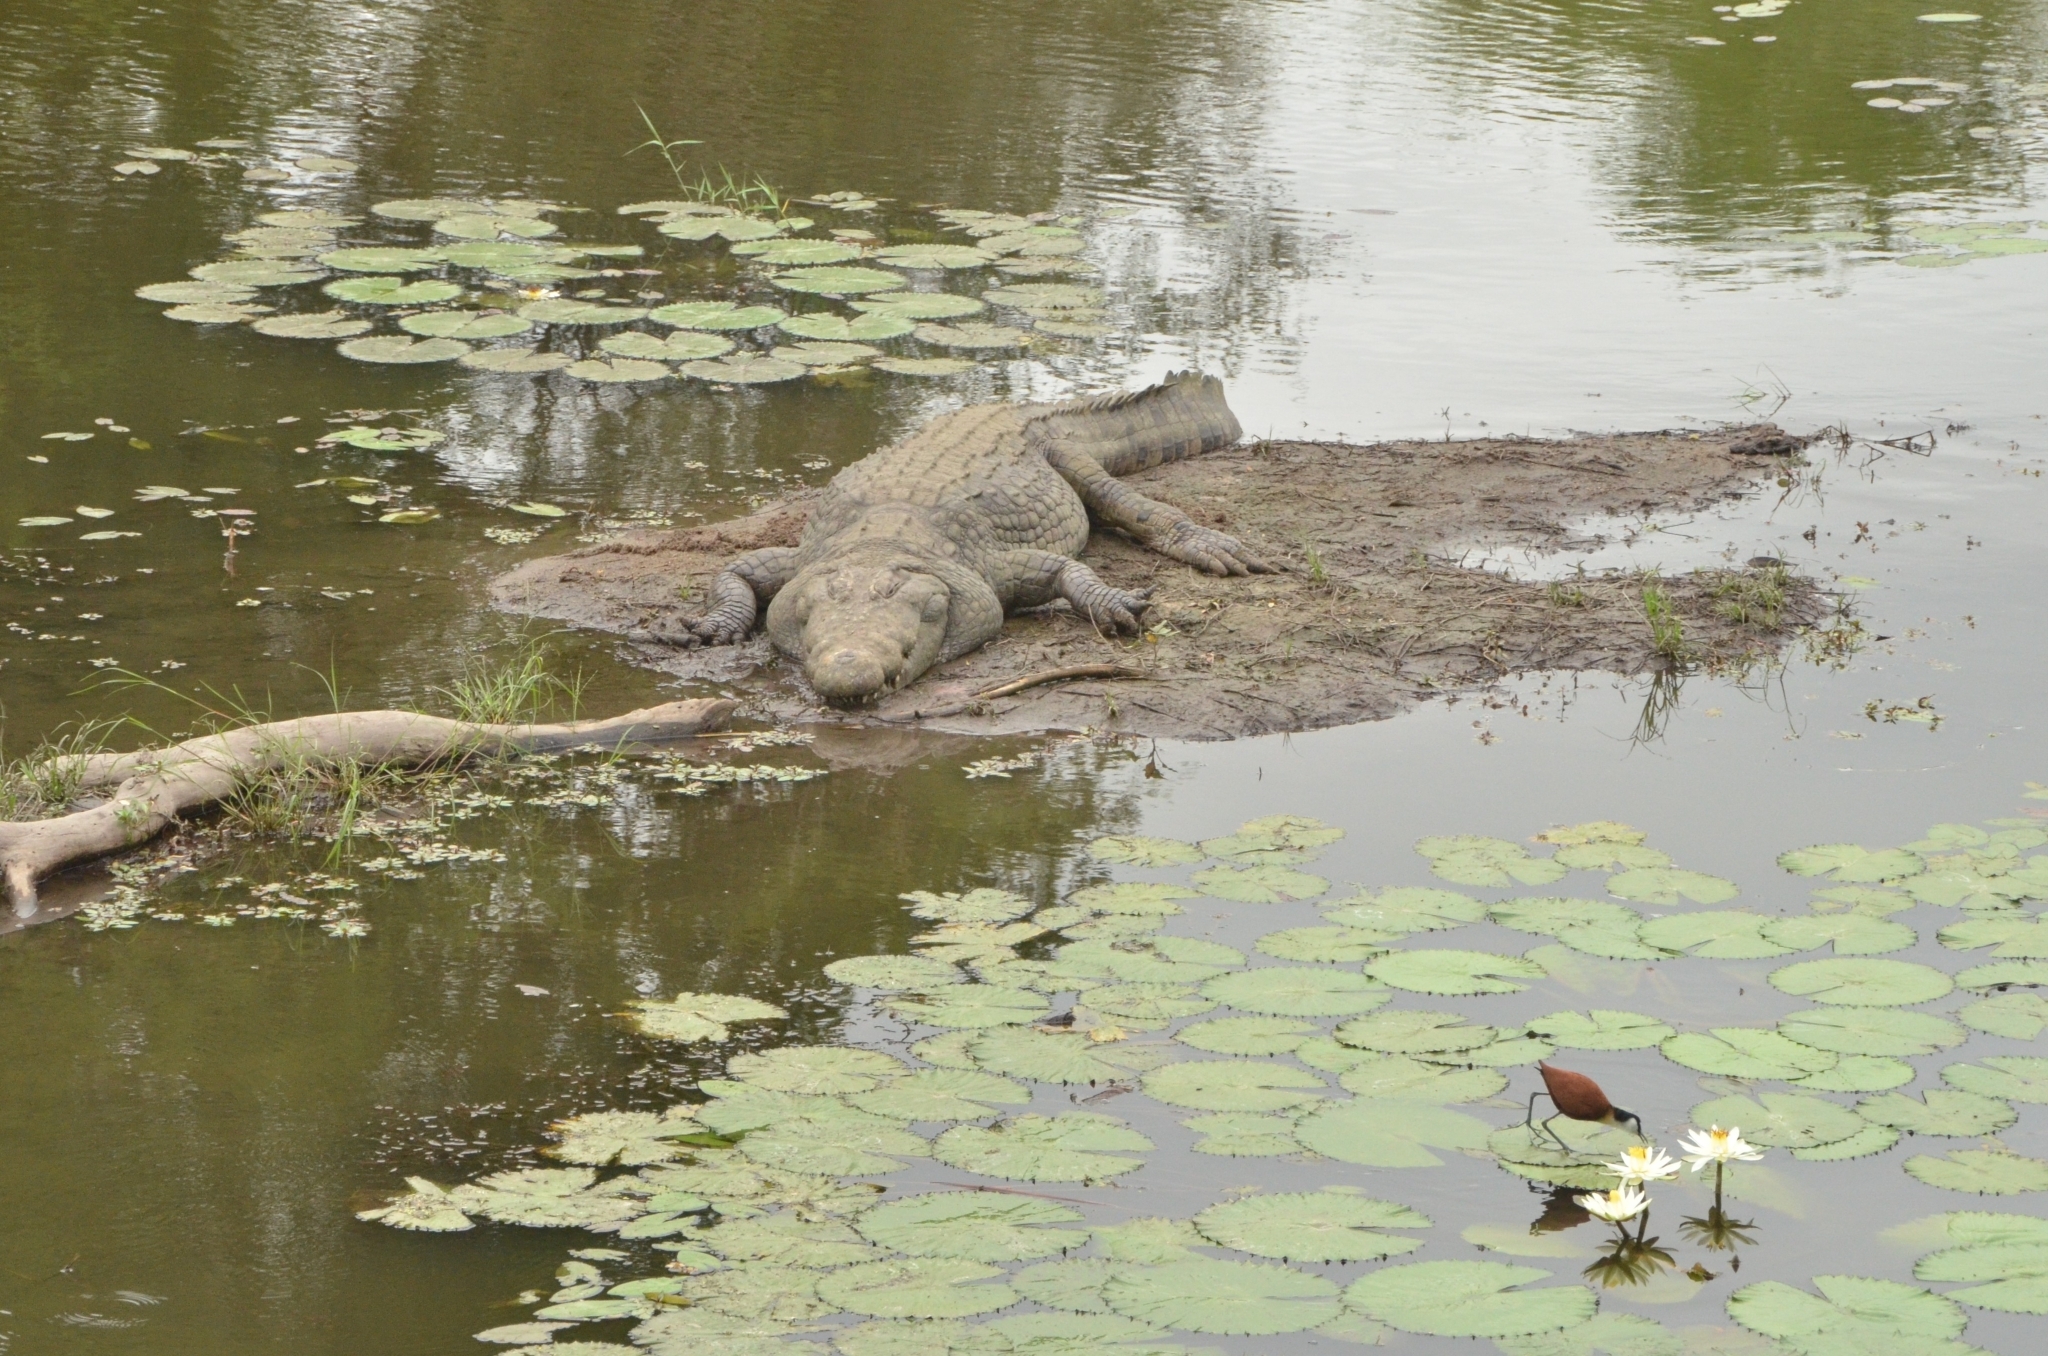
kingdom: Animalia
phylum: Chordata
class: Crocodylia
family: Crocodylidae
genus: Crocodylus
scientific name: Crocodylus niloticus
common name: Nile crocodile
